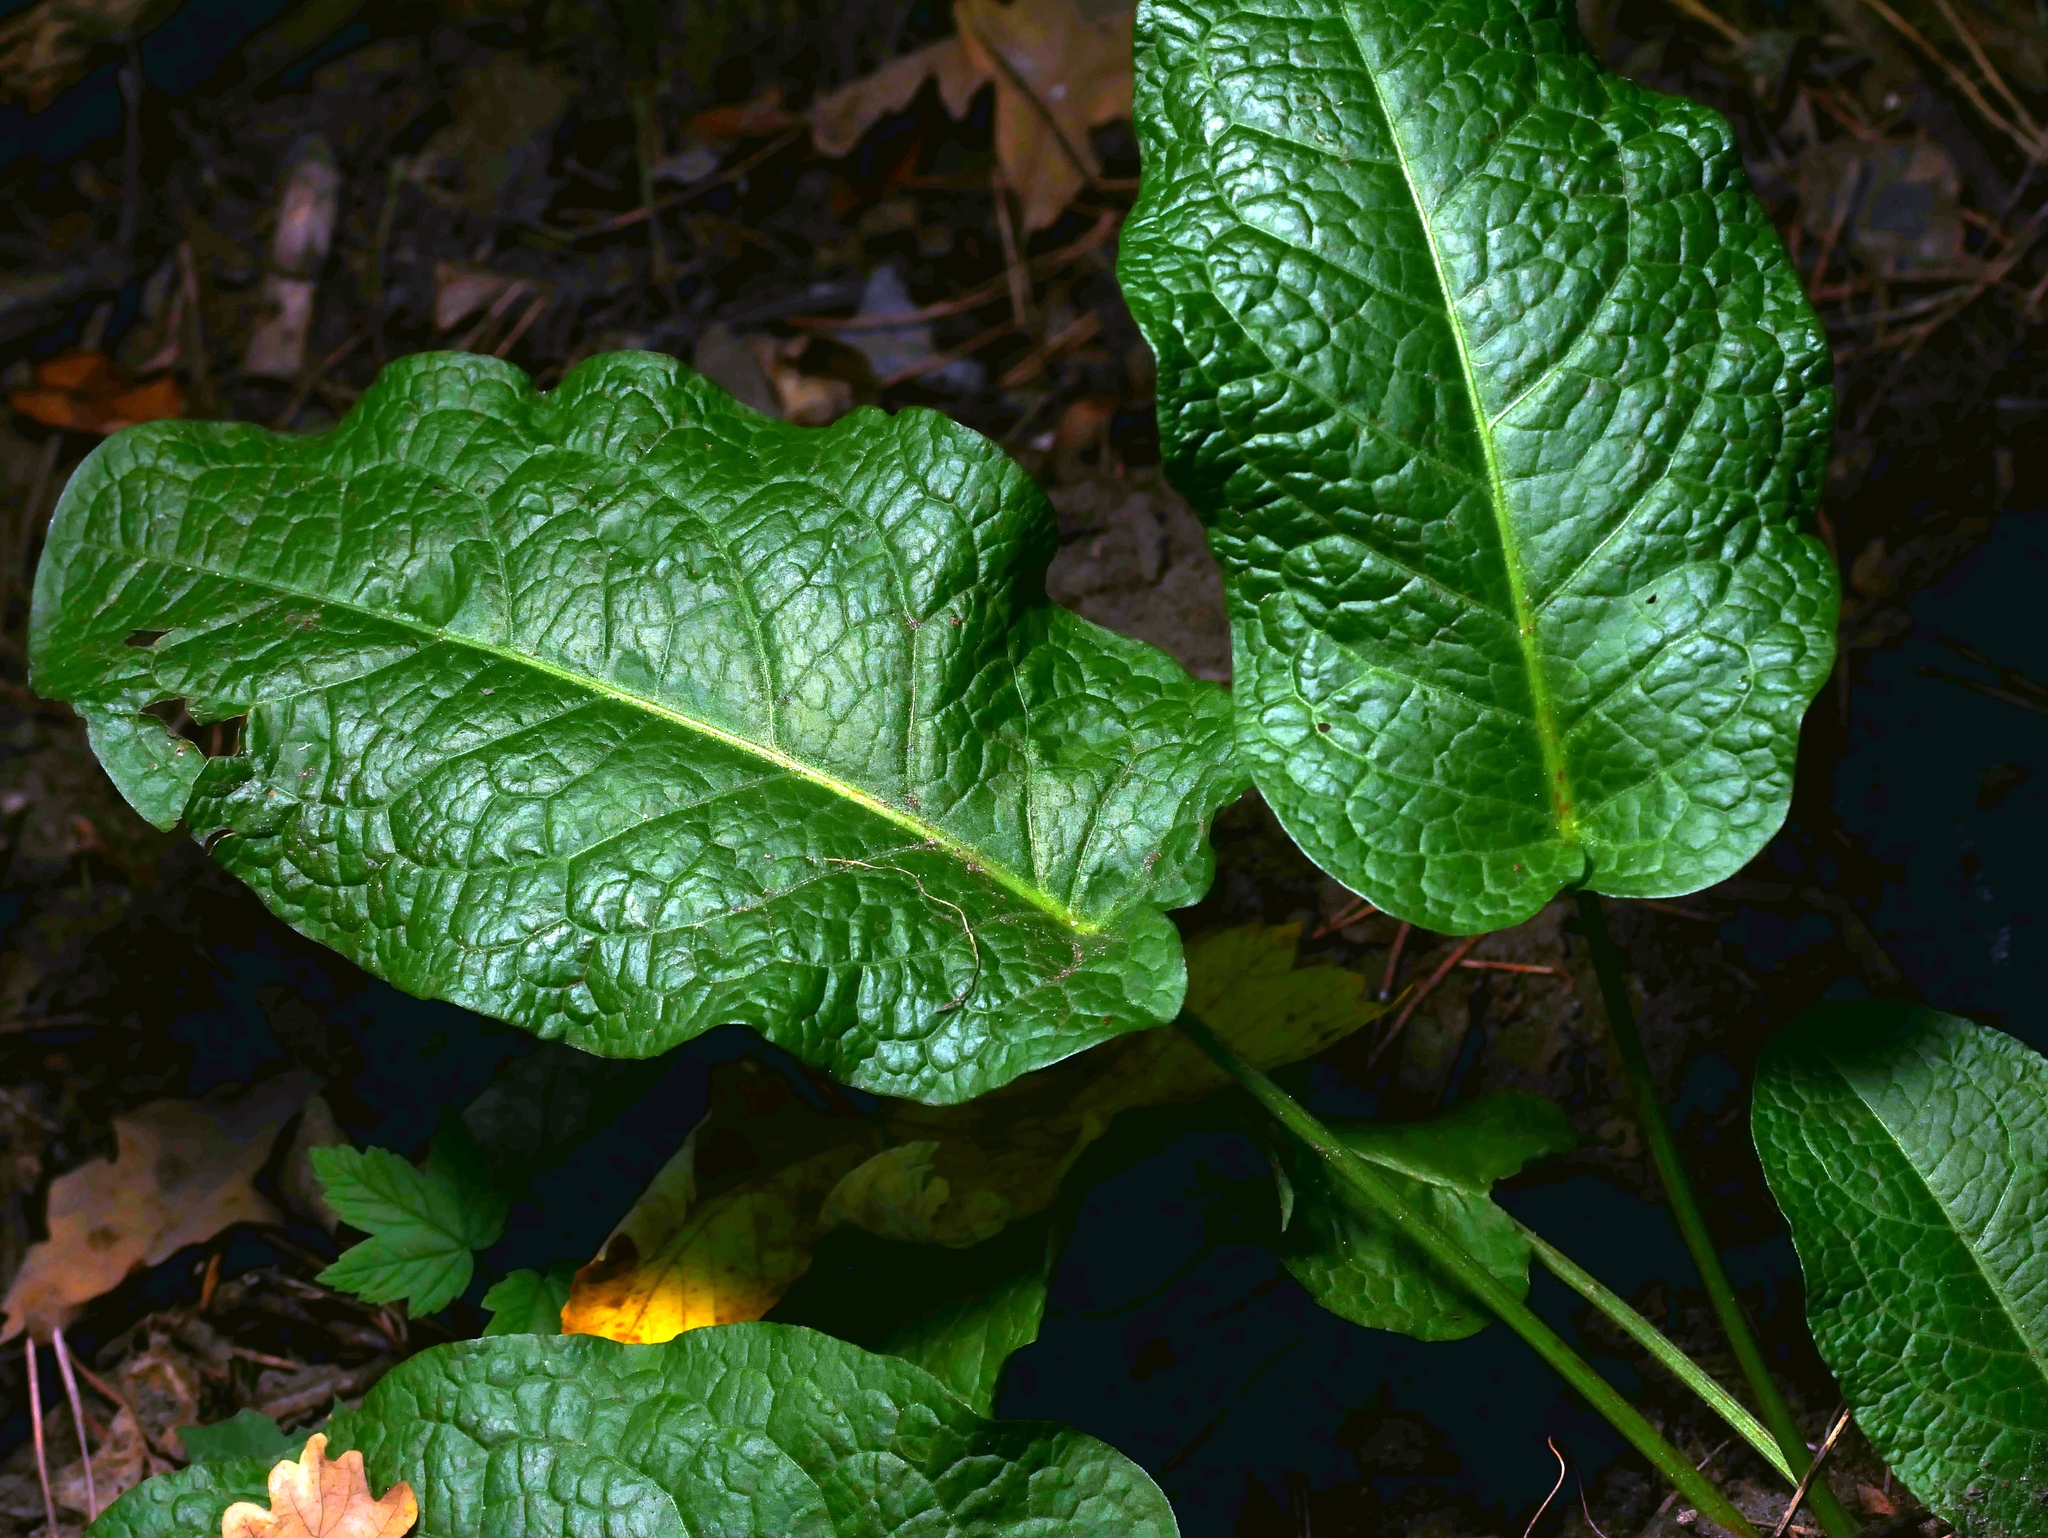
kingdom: Plantae
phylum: Tracheophyta
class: Magnoliopsida
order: Caryophyllales
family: Polygonaceae
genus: Rumex
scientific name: Rumex obtusifolius
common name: Bitter dock
